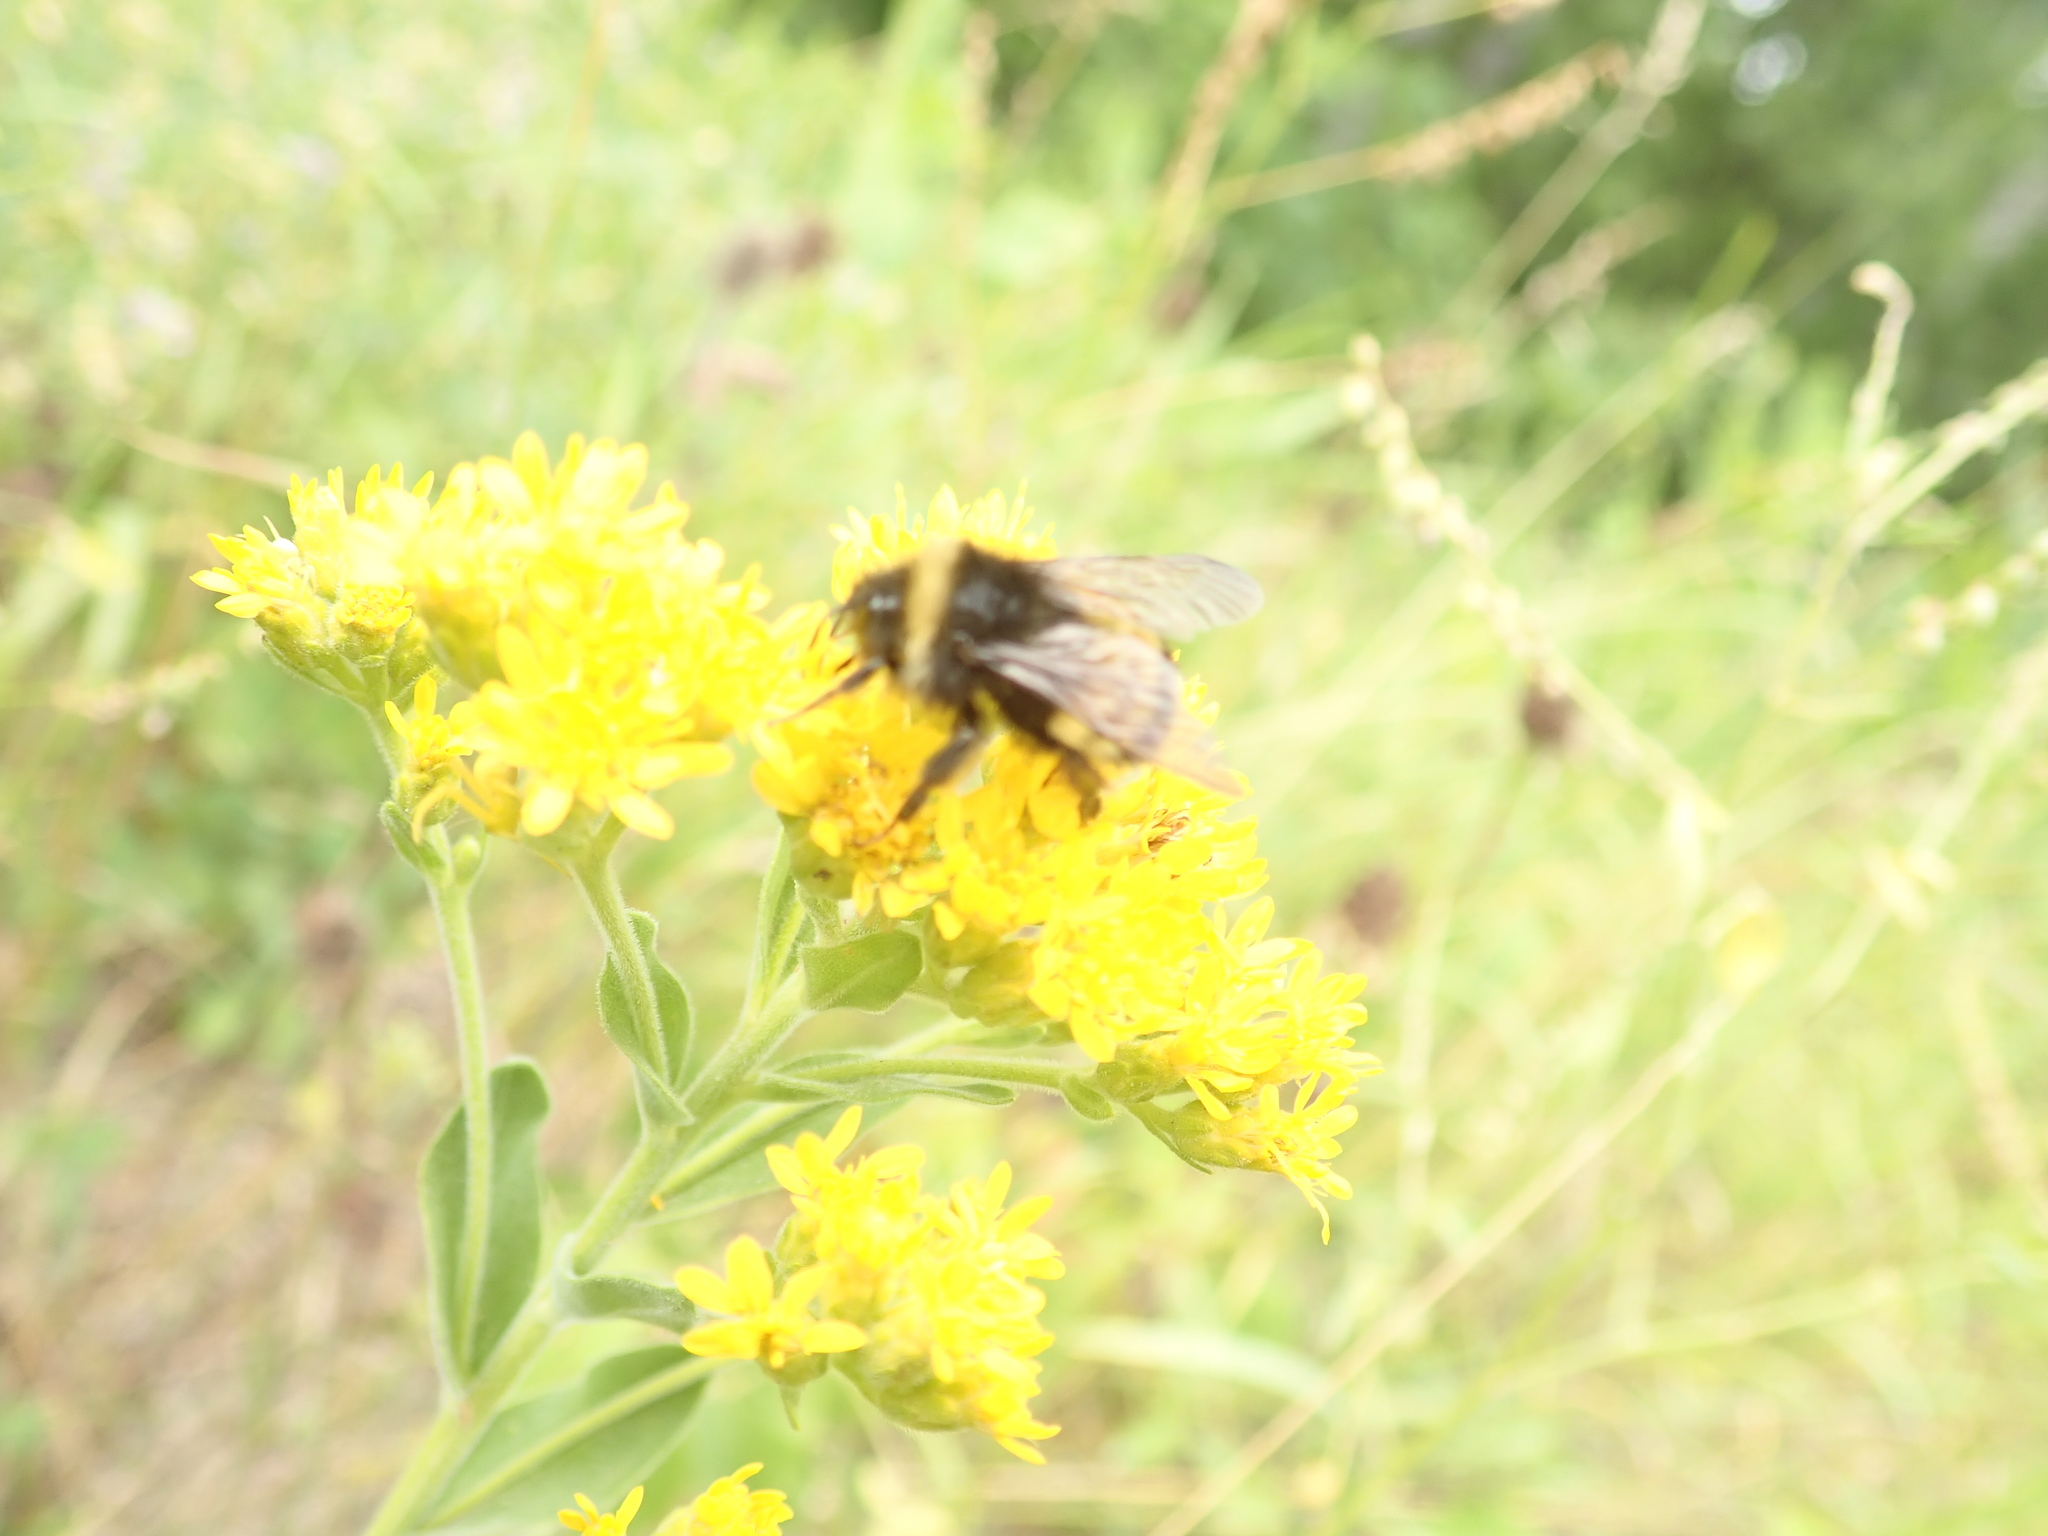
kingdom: Animalia
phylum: Arthropoda
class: Insecta
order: Hymenoptera
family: Apidae
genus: Bombus
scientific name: Bombus terricola
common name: Yellow-banded bumble bee
